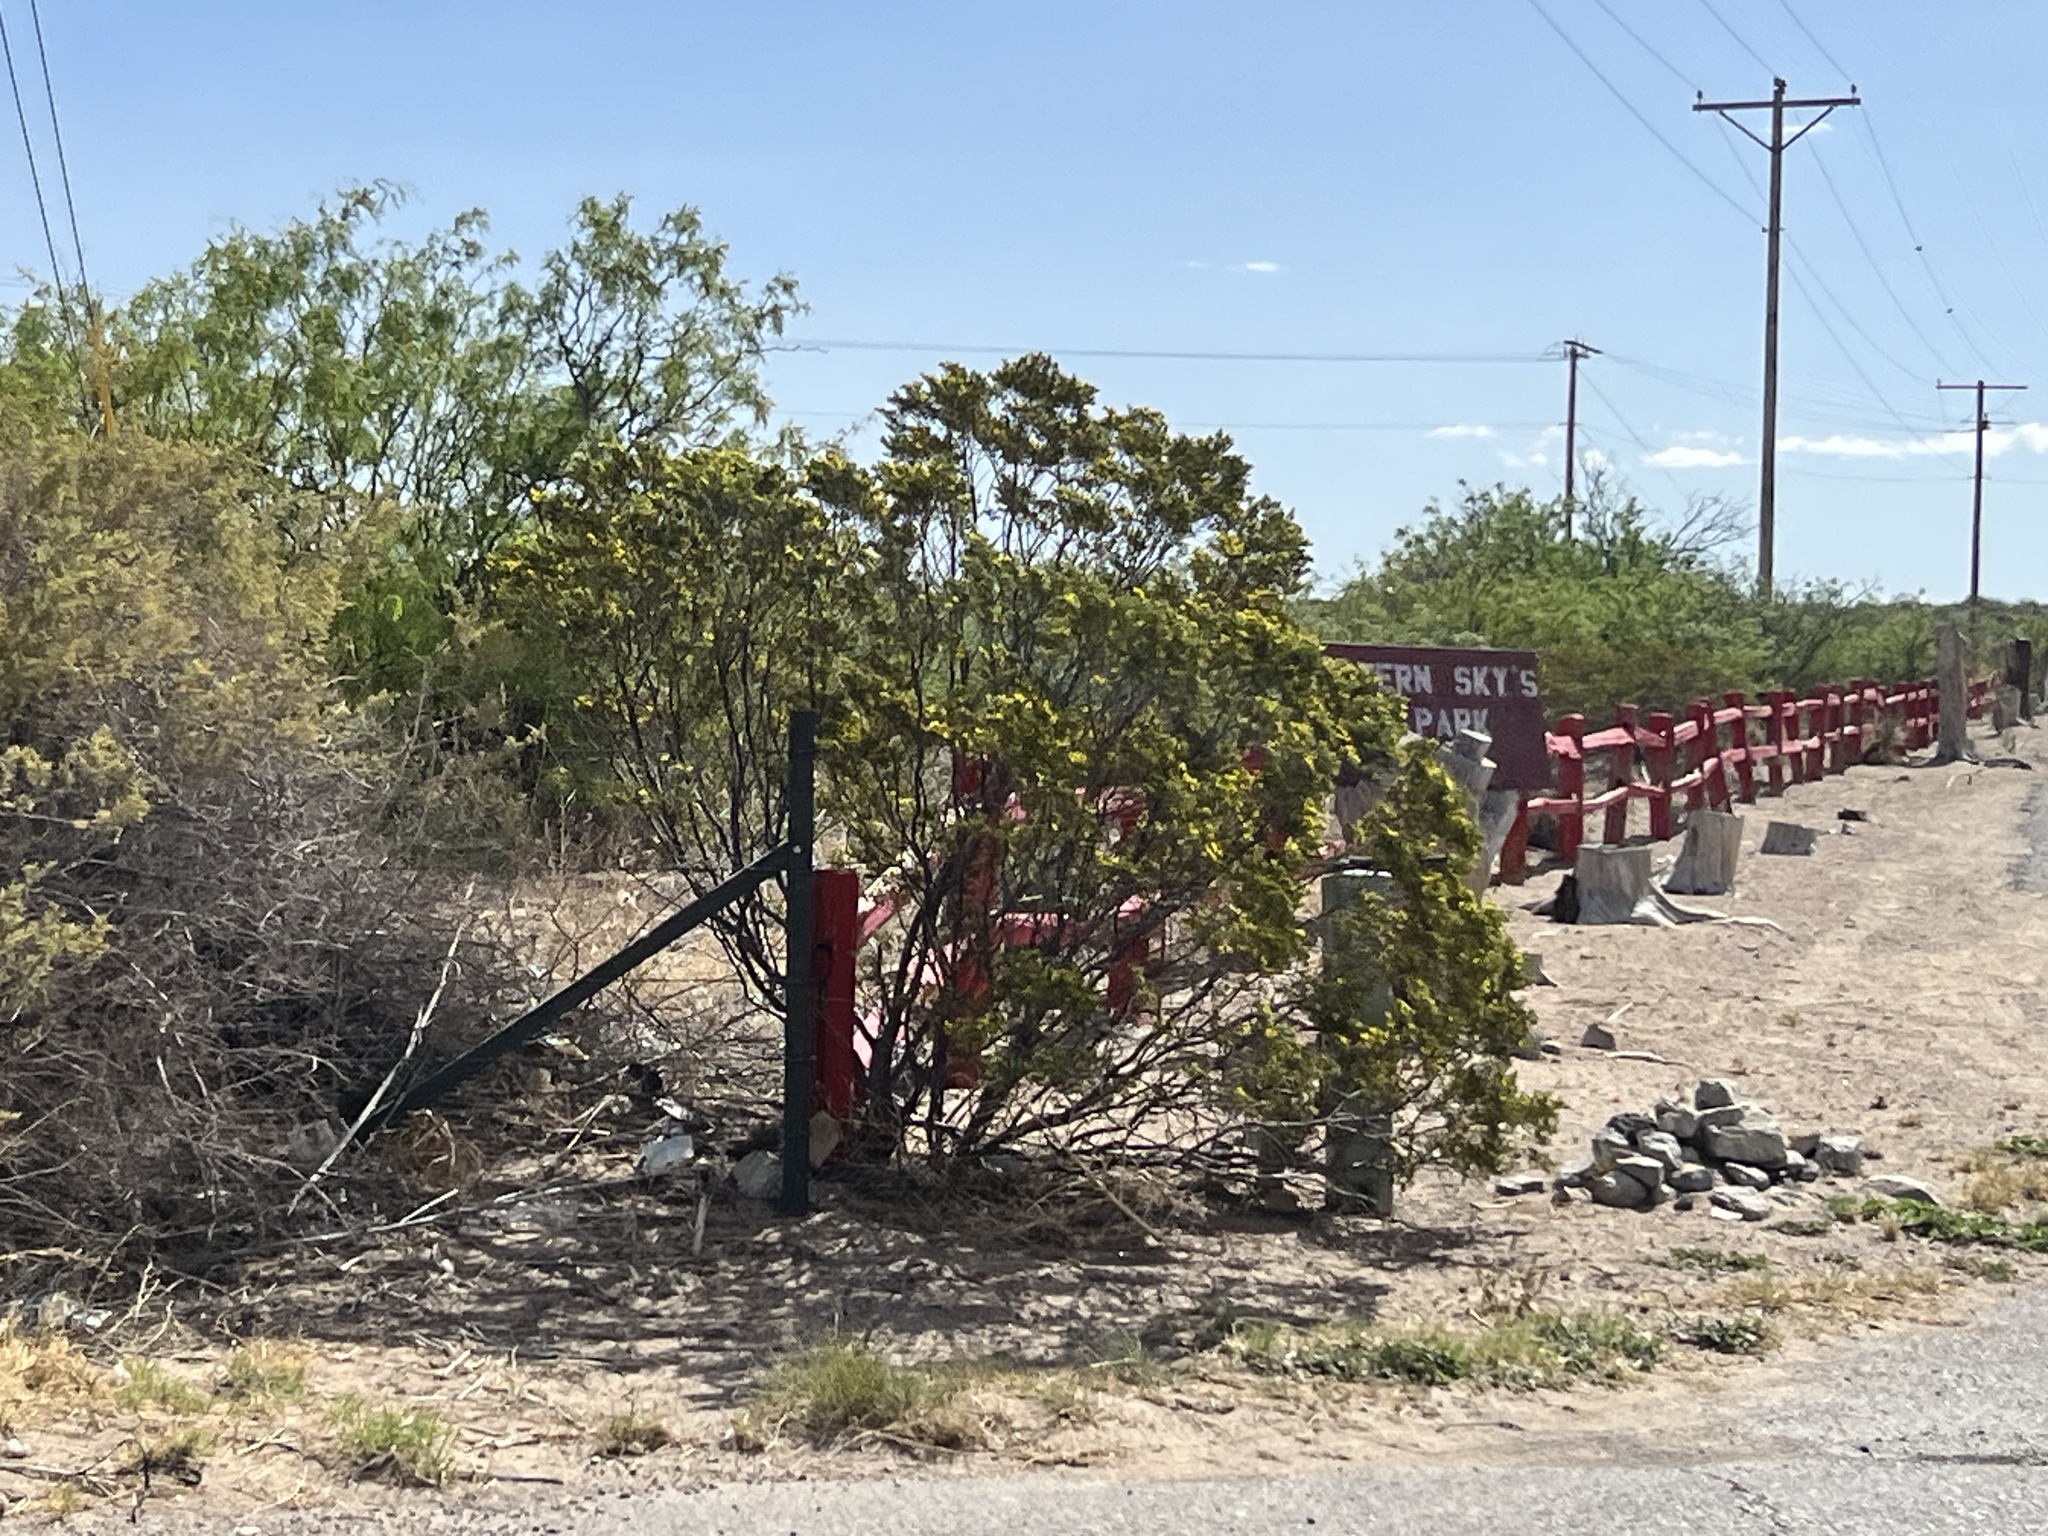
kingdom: Plantae
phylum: Tracheophyta
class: Magnoliopsida
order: Zygophyllales
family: Zygophyllaceae
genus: Larrea
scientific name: Larrea tridentata
